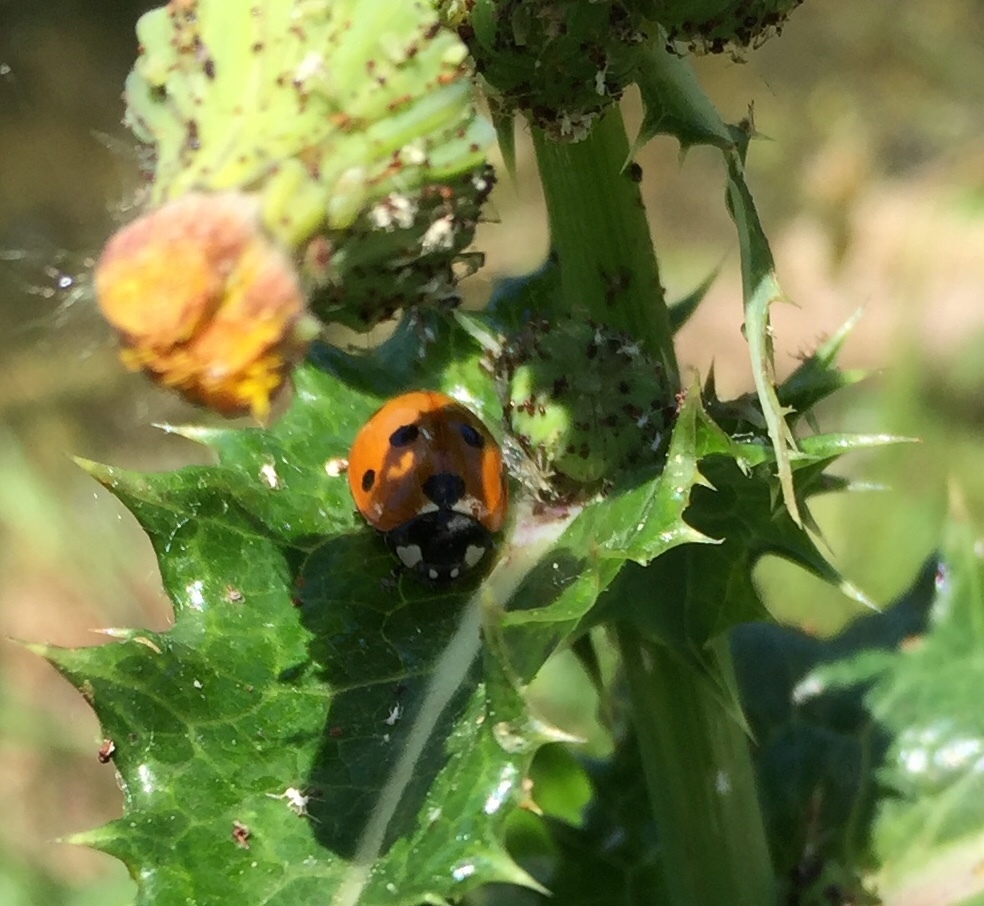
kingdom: Animalia
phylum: Arthropoda
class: Insecta
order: Coleoptera
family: Coccinellidae
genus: Coccinella
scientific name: Coccinella septempunctata
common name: Sevenspotted lady beetle
